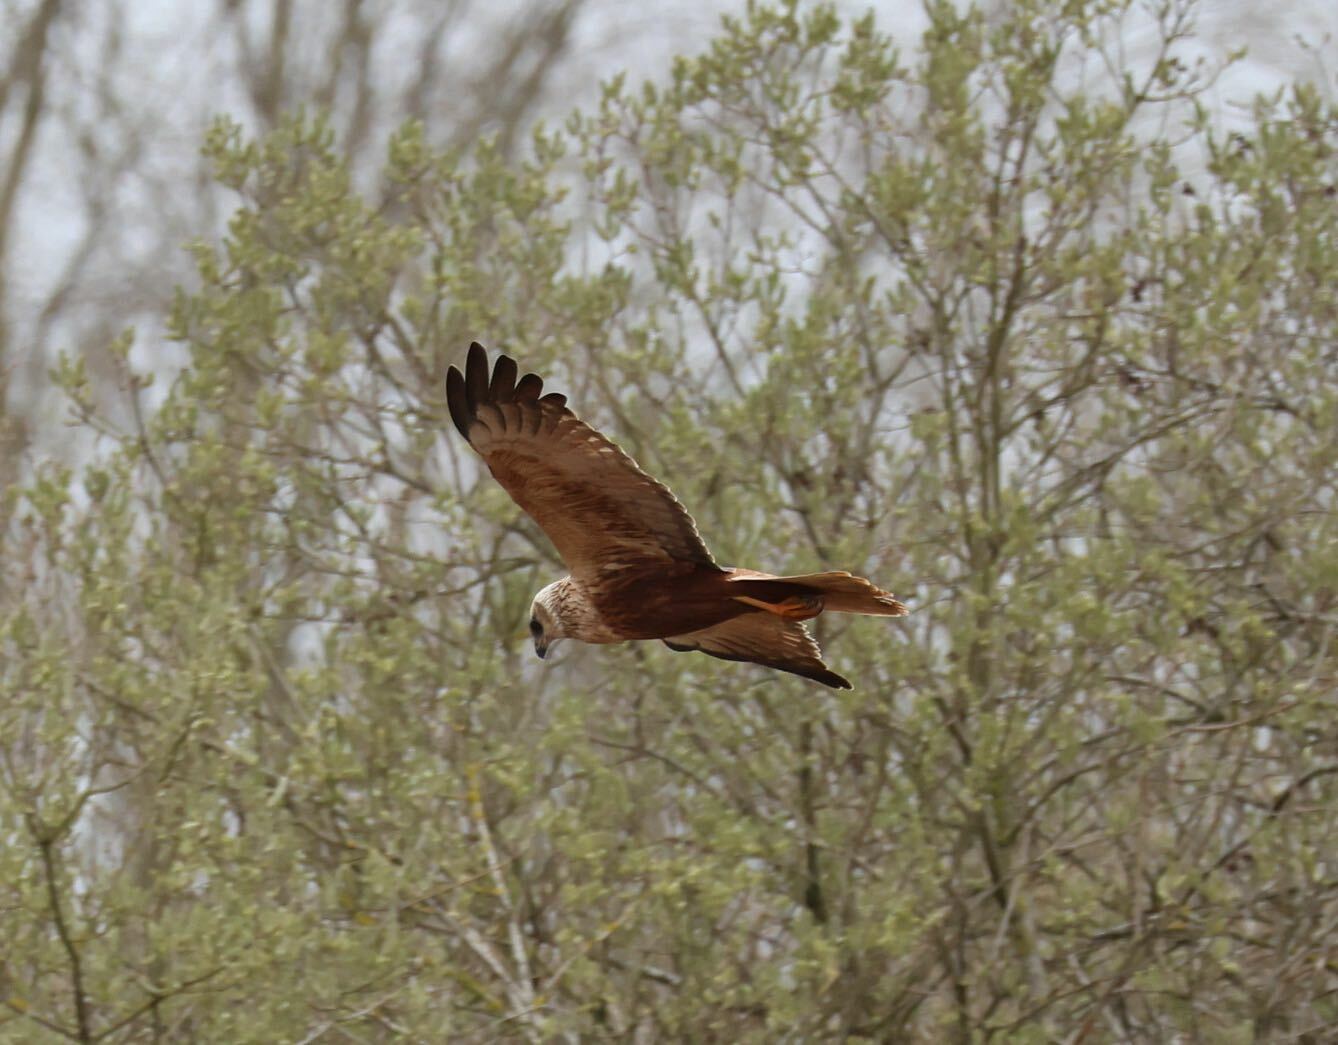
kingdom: Animalia
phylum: Chordata
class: Aves
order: Accipitriformes
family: Accipitridae
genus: Circus
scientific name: Circus aeruginosus
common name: Western marsh harrier
